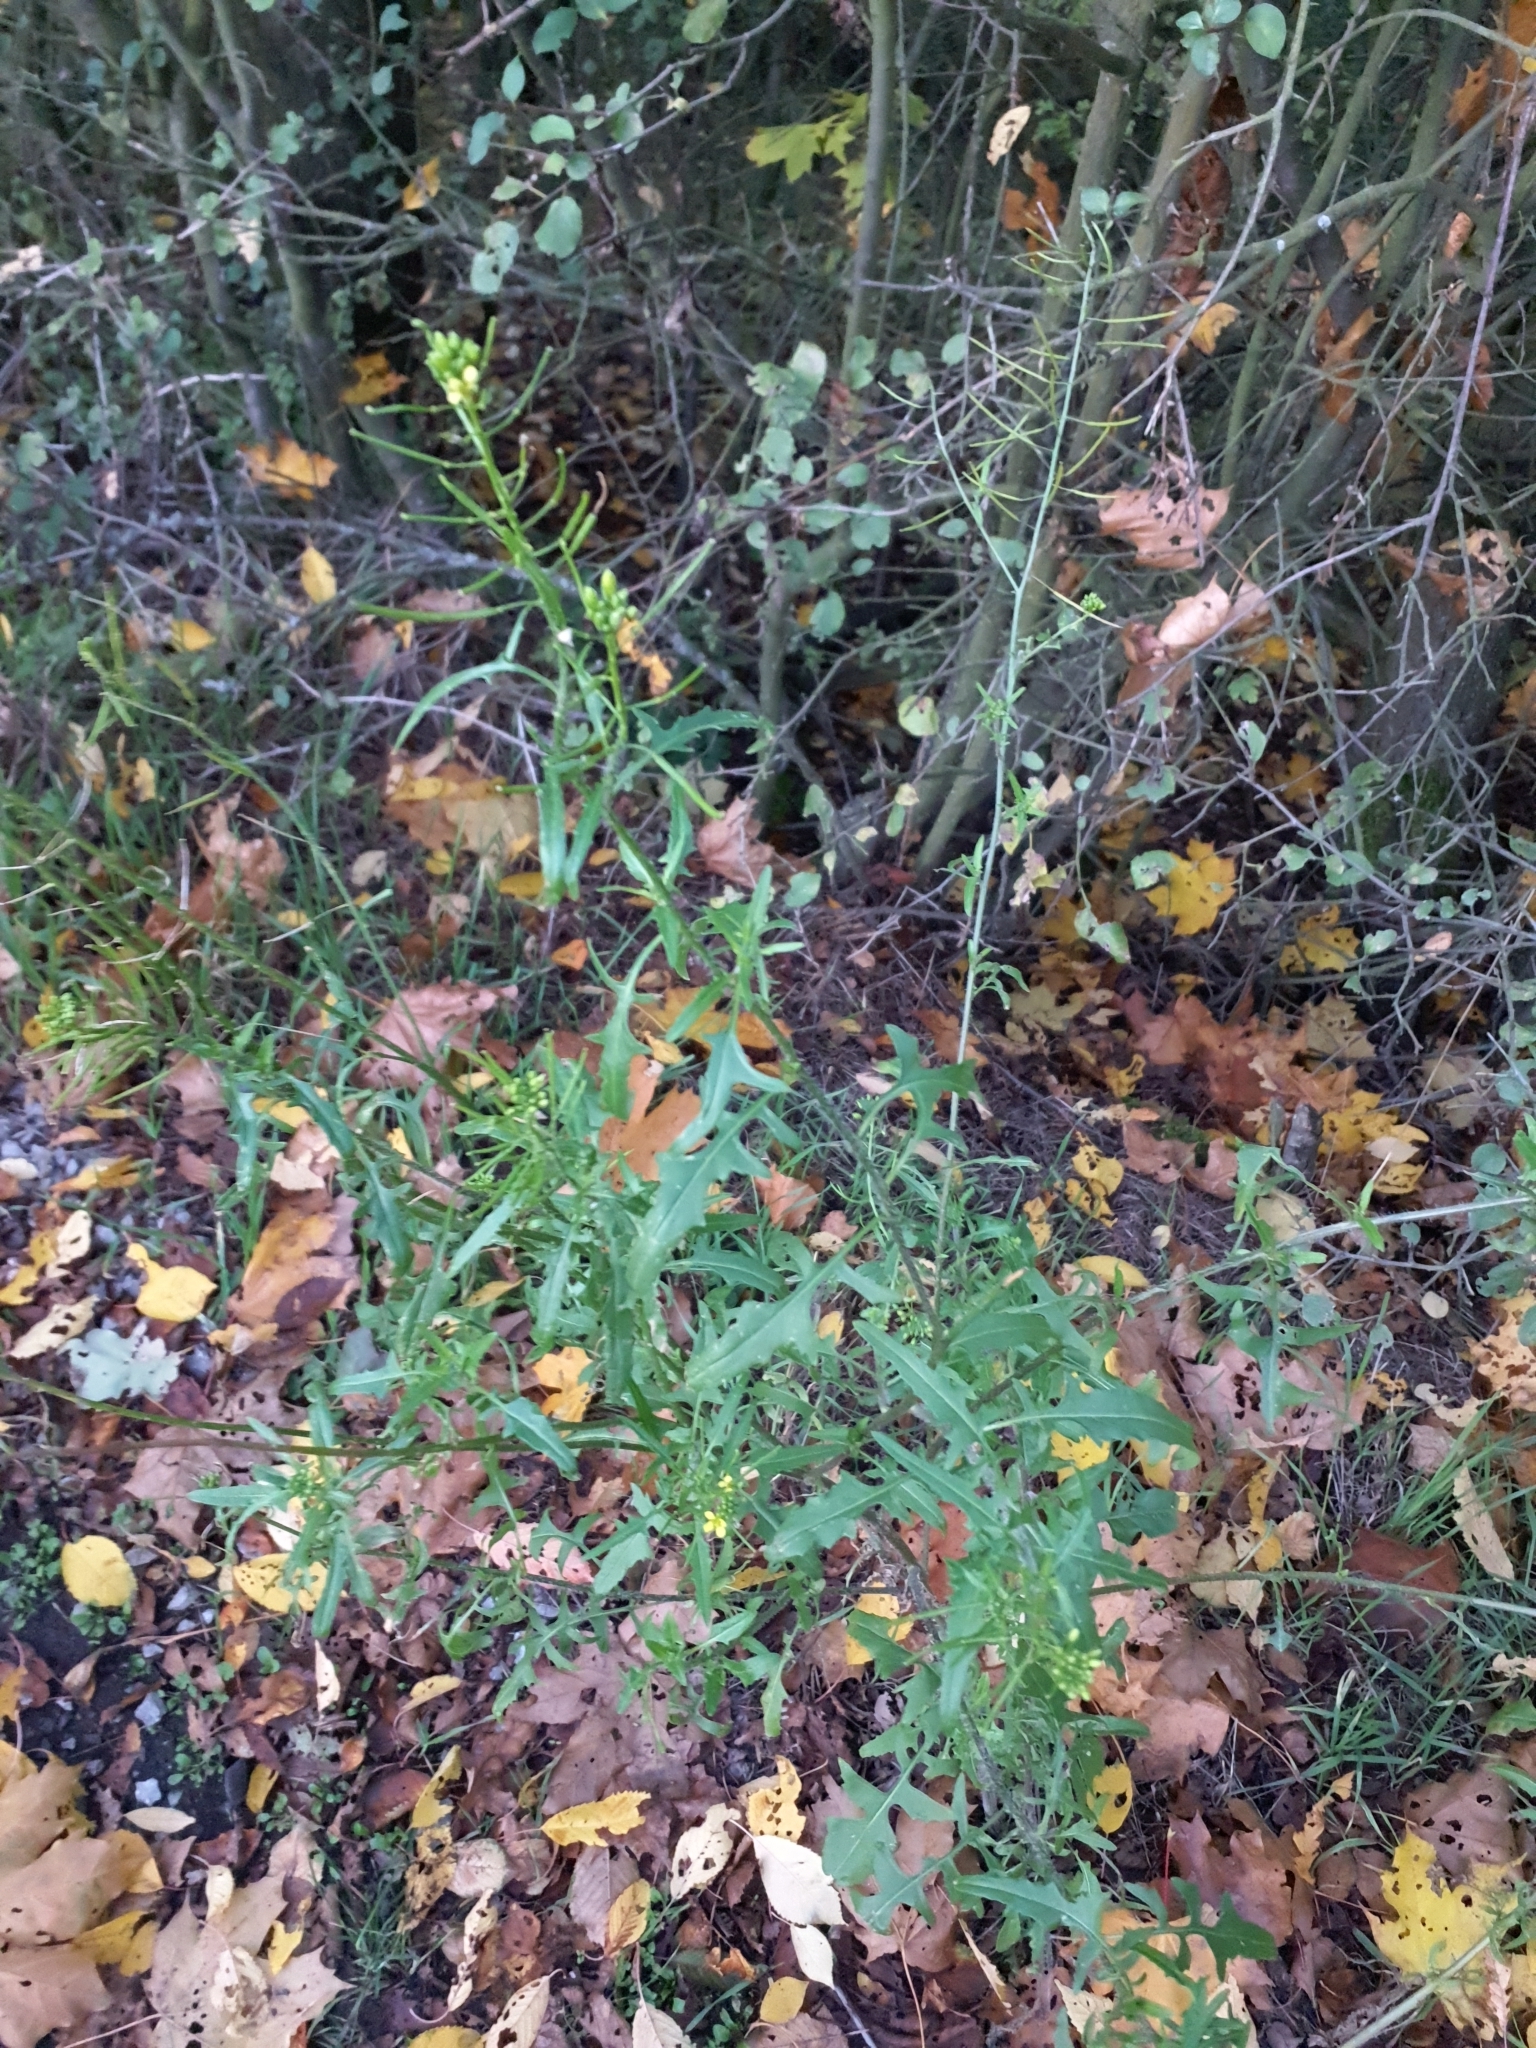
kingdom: Plantae
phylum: Tracheophyta
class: Magnoliopsida
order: Brassicales
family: Brassicaceae
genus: Sisymbrium
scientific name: Sisymbrium loeselii
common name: False london-rocket
